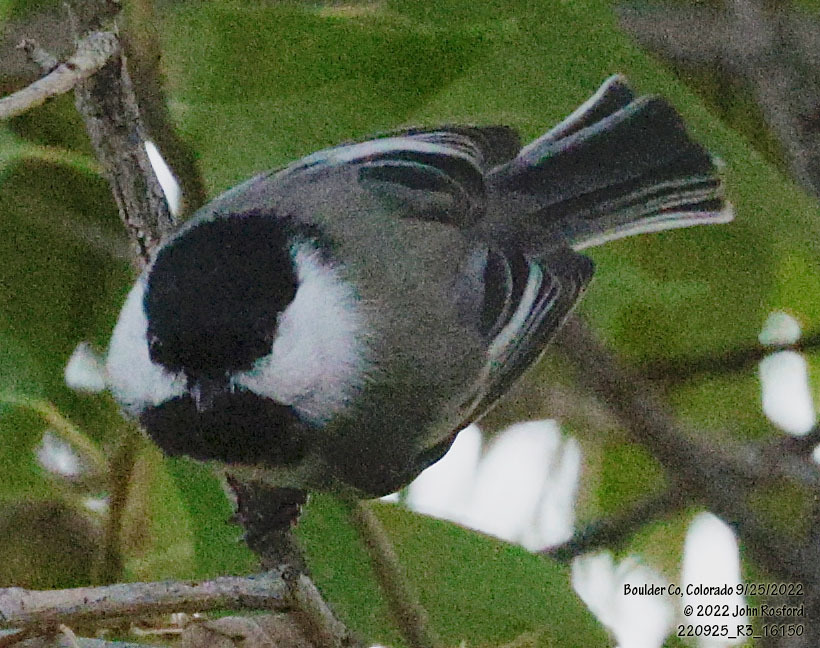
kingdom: Animalia
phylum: Chordata
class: Aves
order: Passeriformes
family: Paridae
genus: Poecile
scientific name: Poecile atricapillus
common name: Black-capped chickadee
